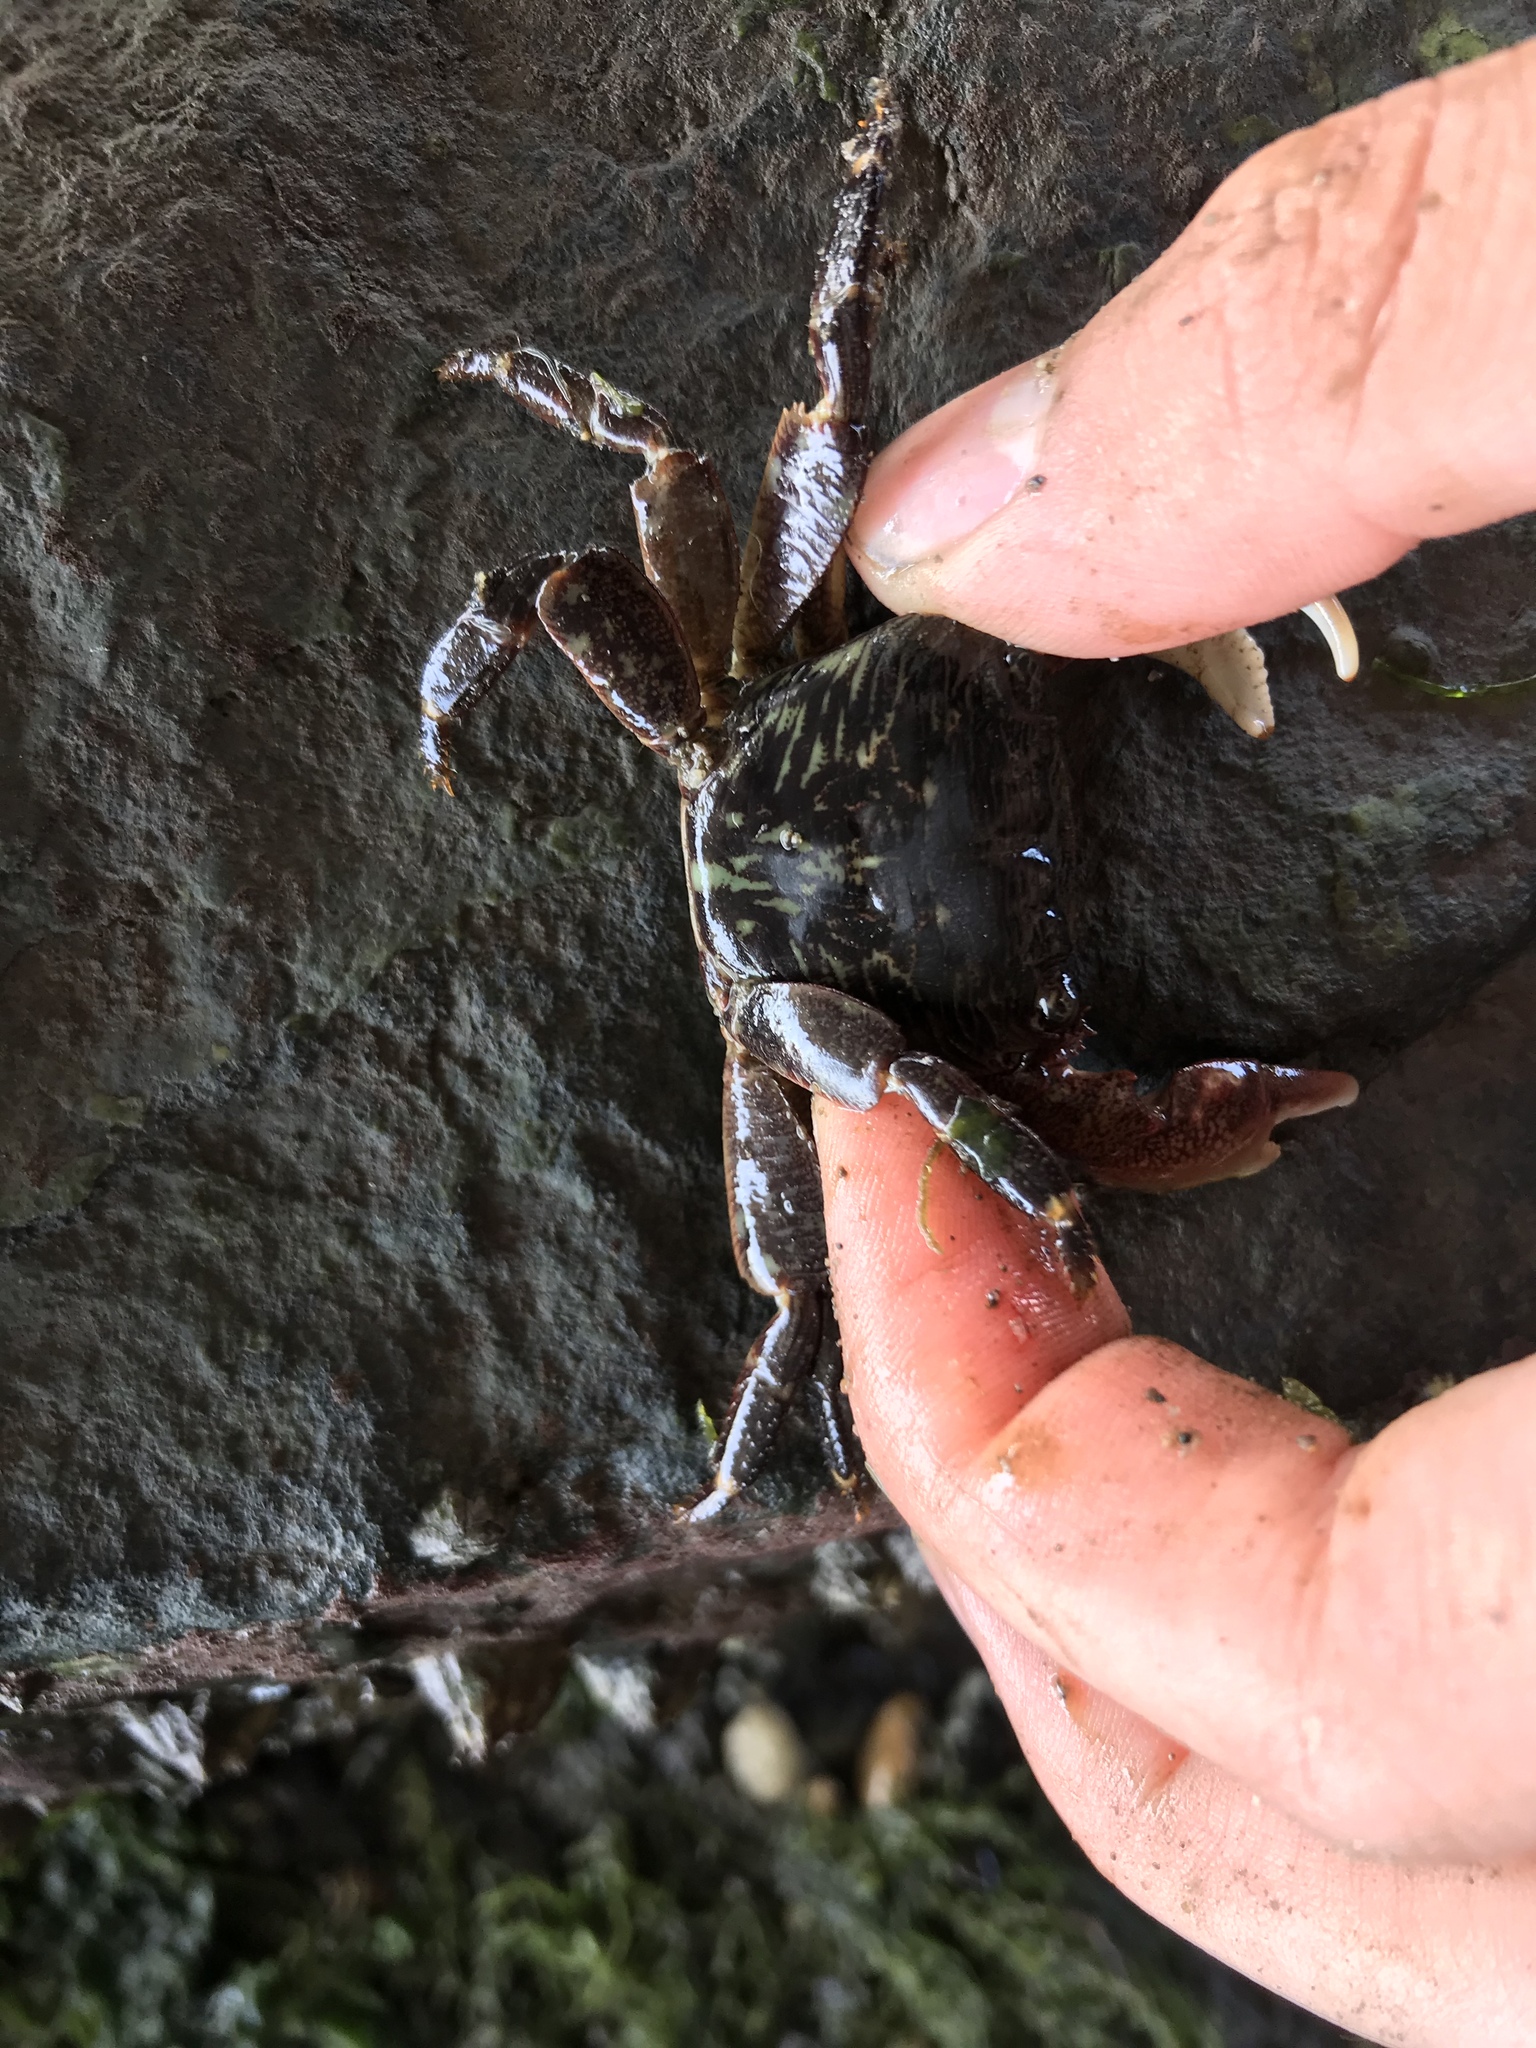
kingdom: Animalia
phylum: Arthropoda
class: Malacostraca
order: Decapoda
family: Grapsidae
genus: Pachygrapsus
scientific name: Pachygrapsus crassipes
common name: Striped shore crab
